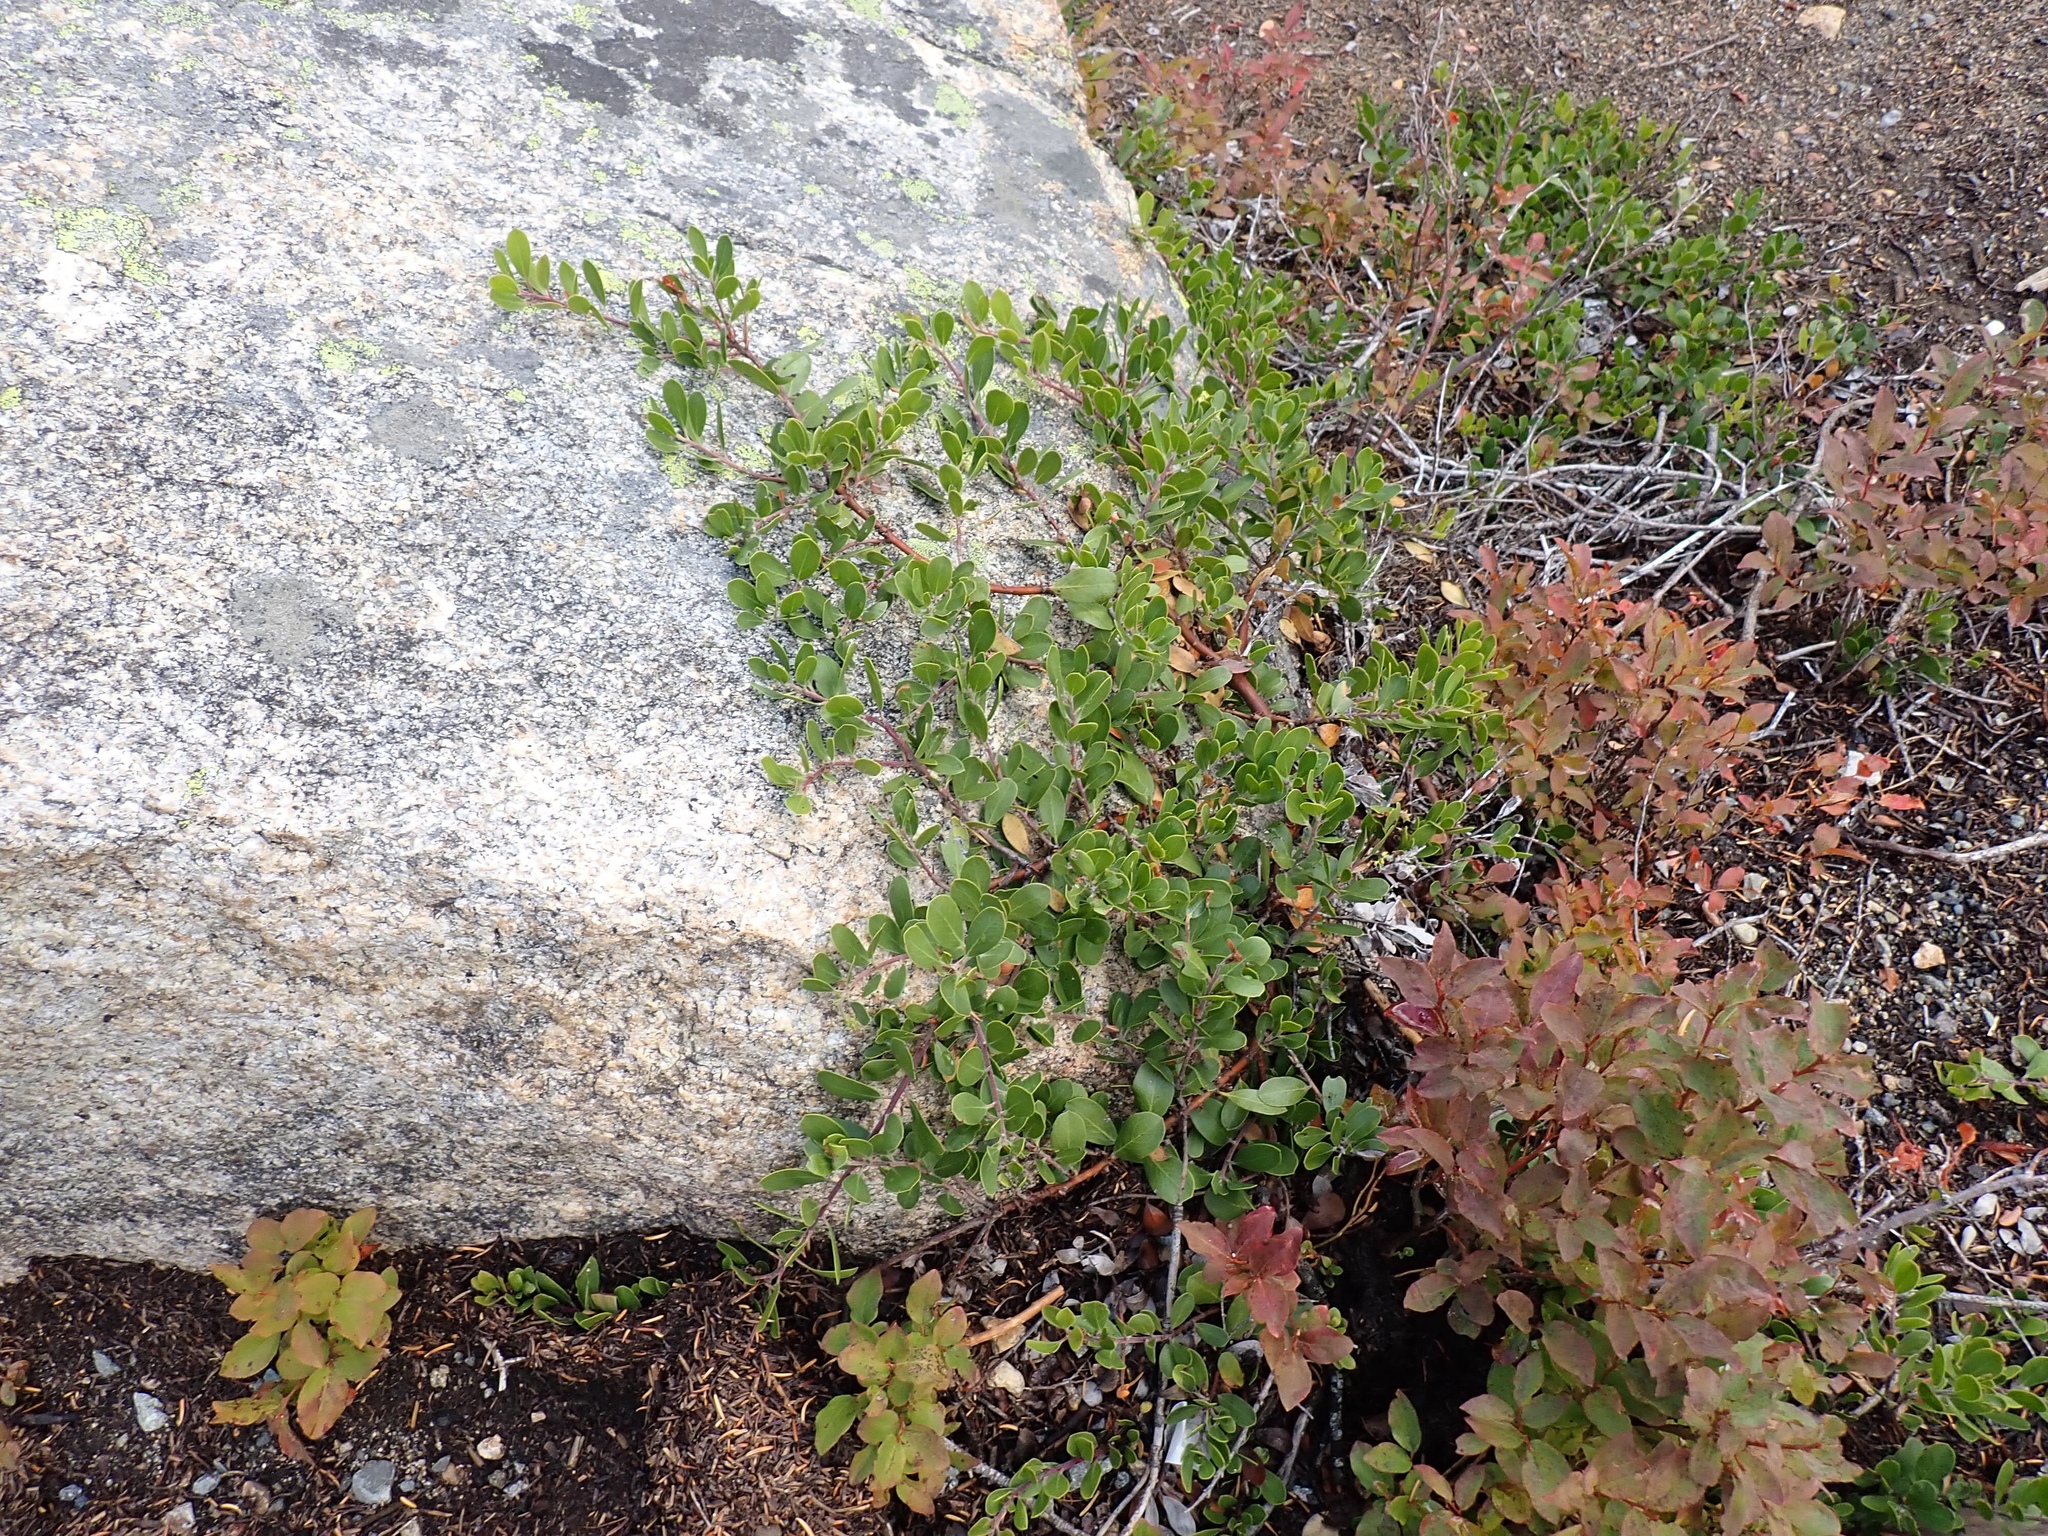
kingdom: Plantae
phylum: Tracheophyta
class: Magnoliopsida
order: Ericales
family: Ericaceae
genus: Arctostaphylos
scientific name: Arctostaphylos nevadensis
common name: Pinemat manzanita
